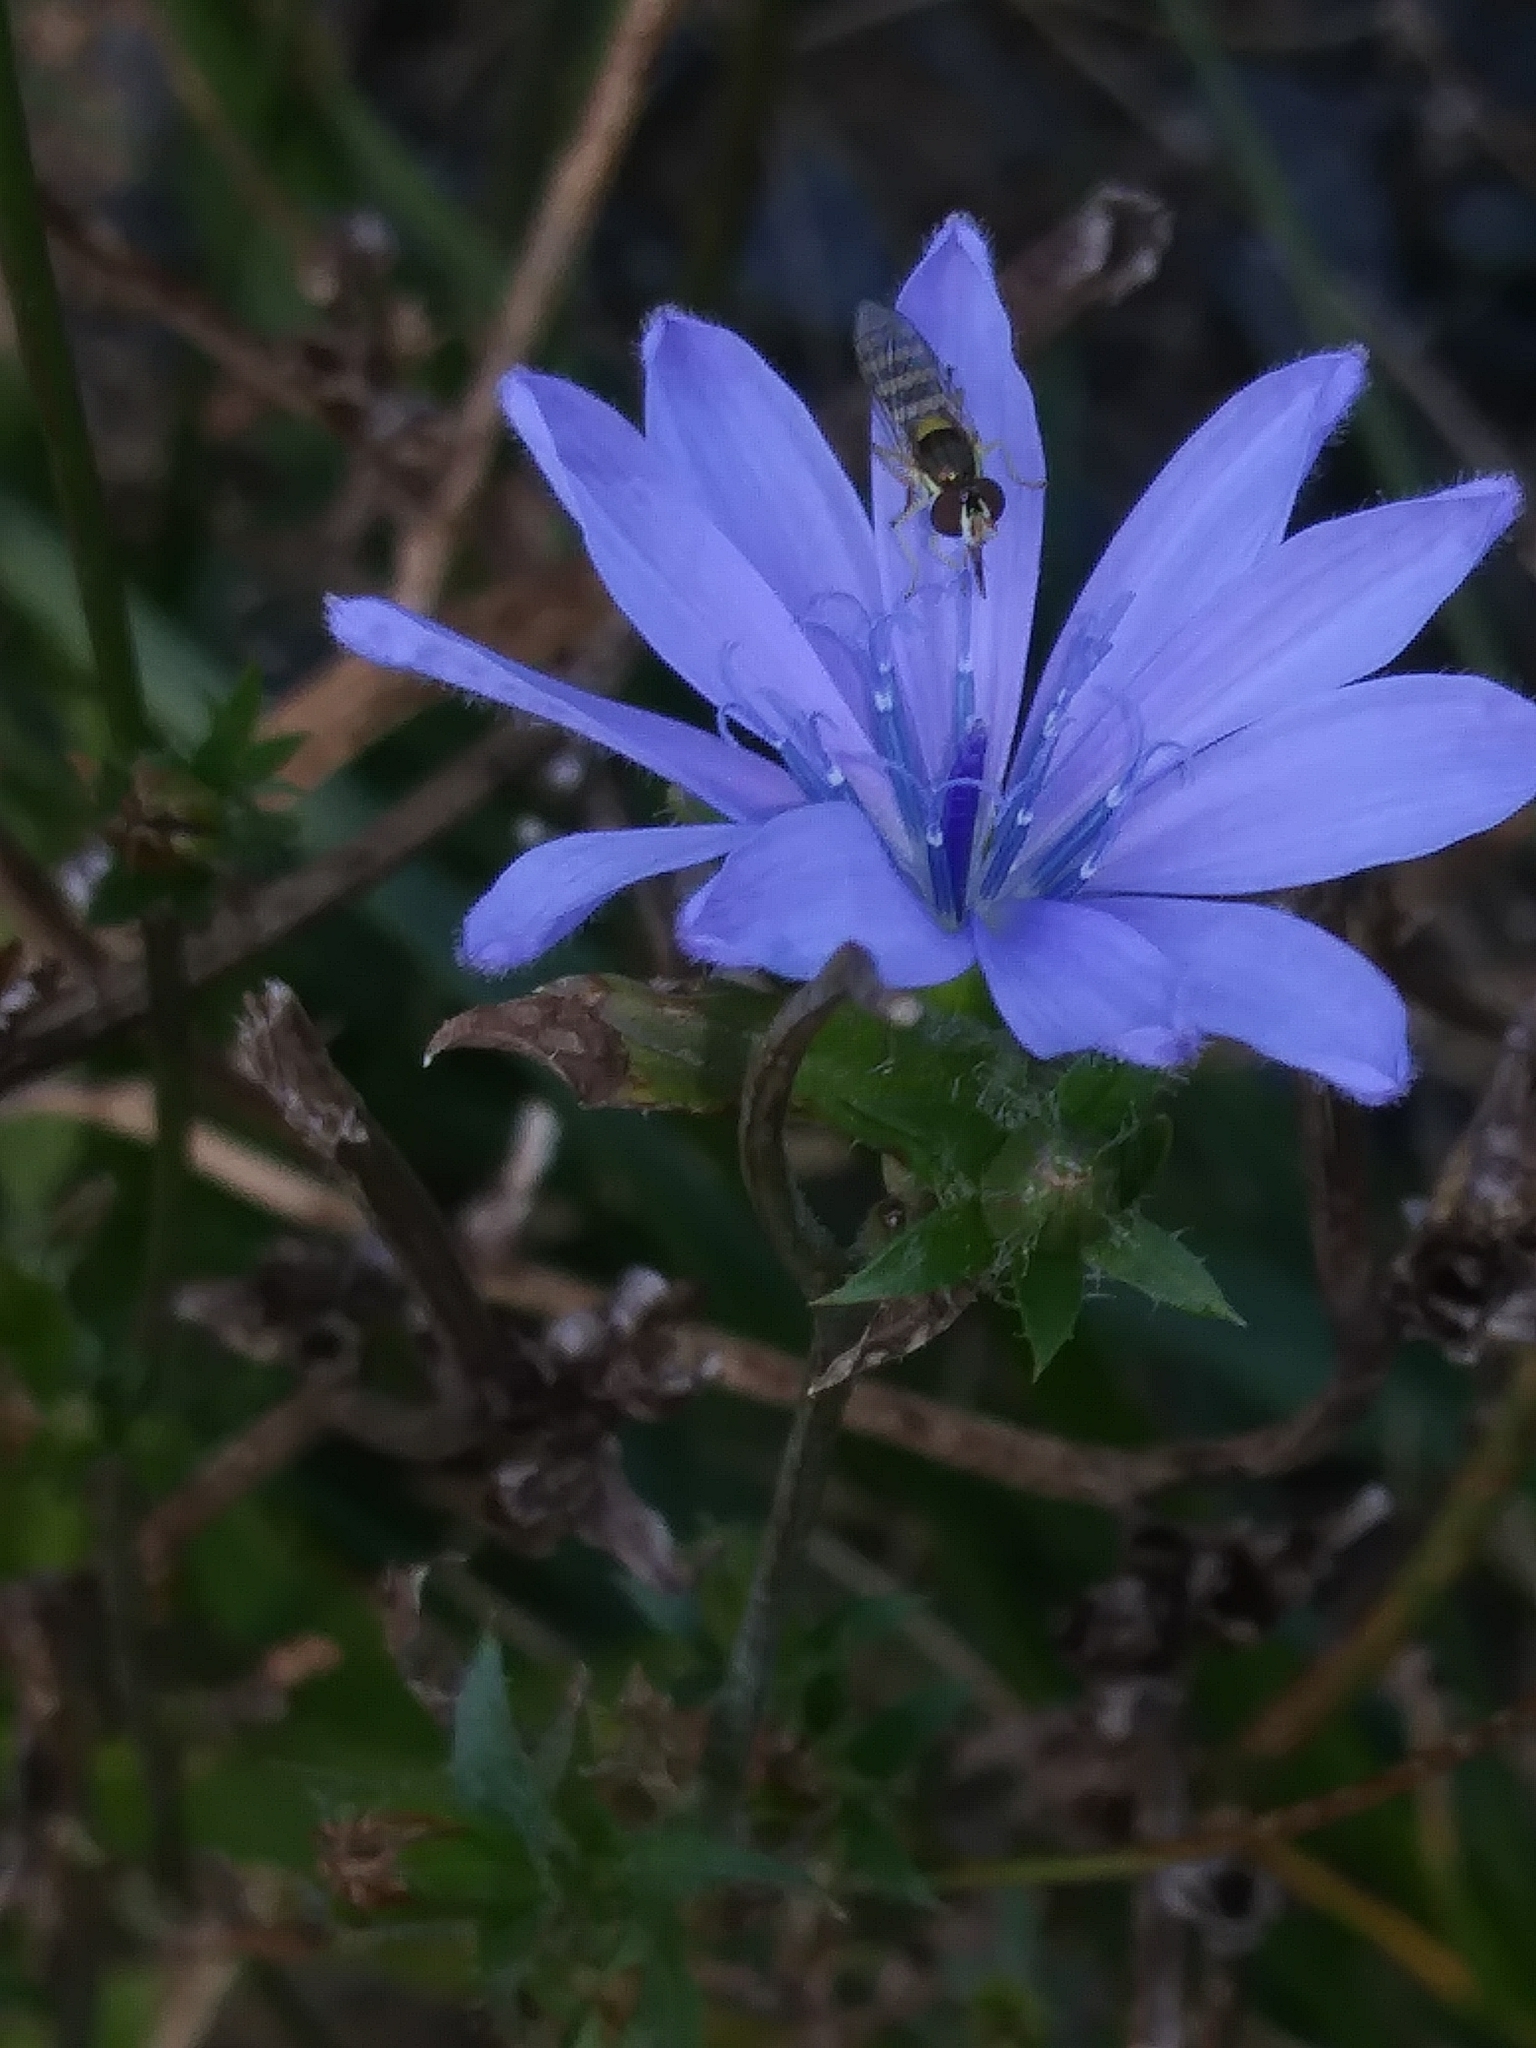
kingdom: Plantae
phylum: Tracheophyta
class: Magnoliopsida
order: Asterales
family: Asteraceae
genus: Cichorium
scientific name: Cichorium intybus
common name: Chicory
